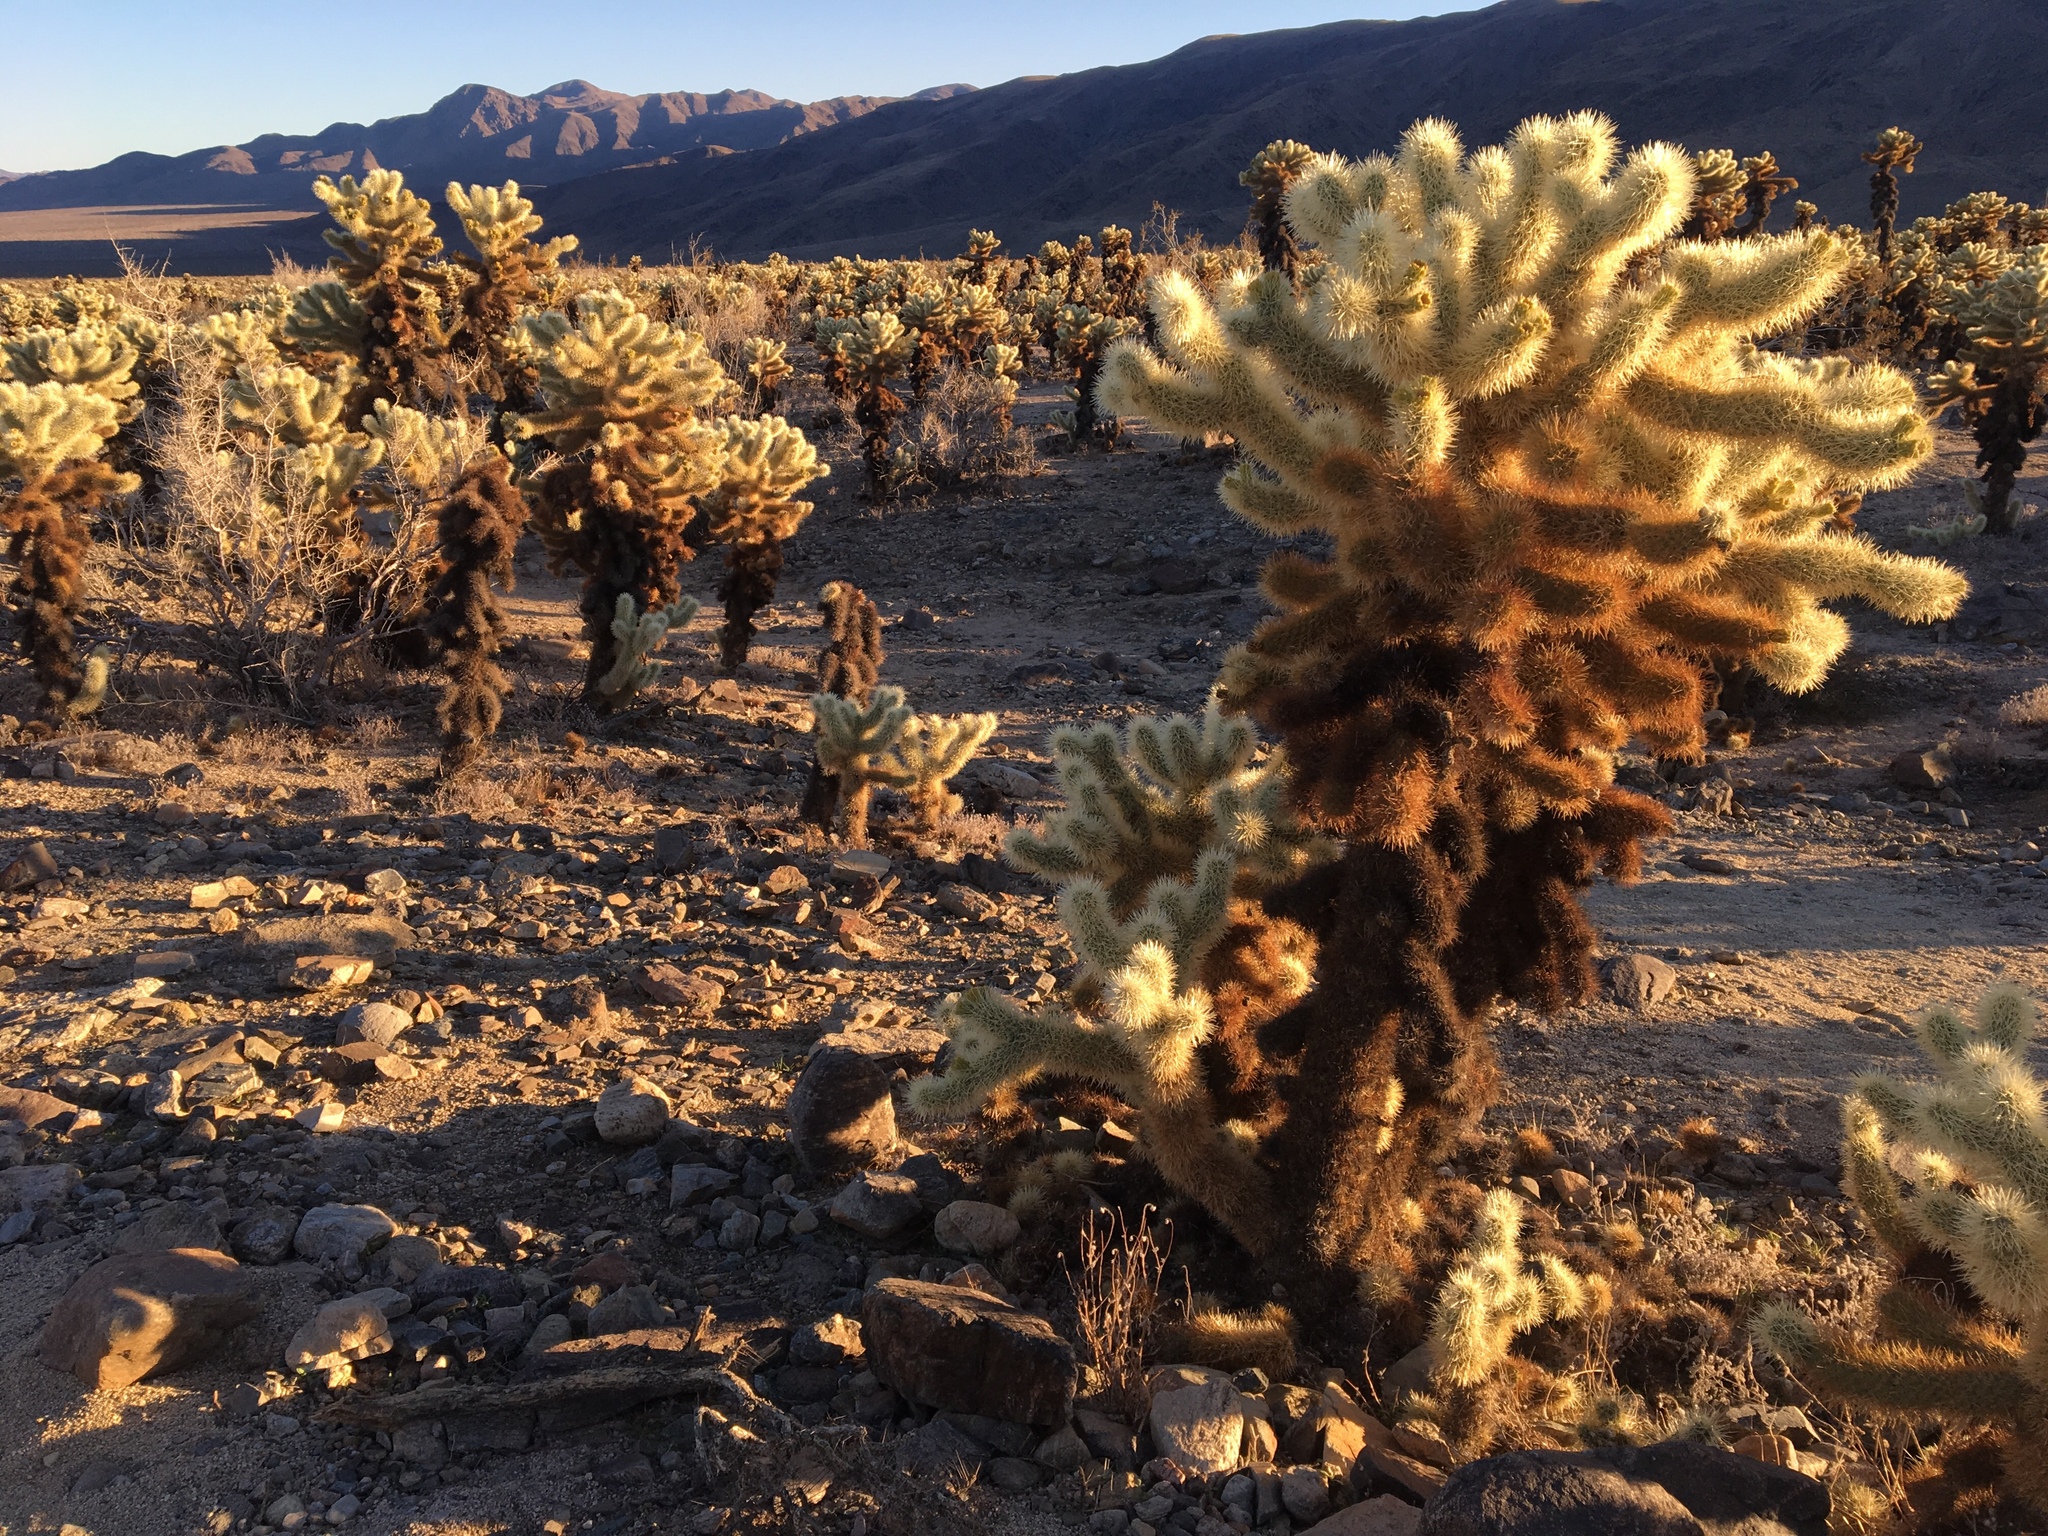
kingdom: Plantae
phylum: Tracheophyta
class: Magnoliopsida
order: Caryophyllales
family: Cactaceae
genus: Cylindropuntia
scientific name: Cylindropuntia fosbergii
